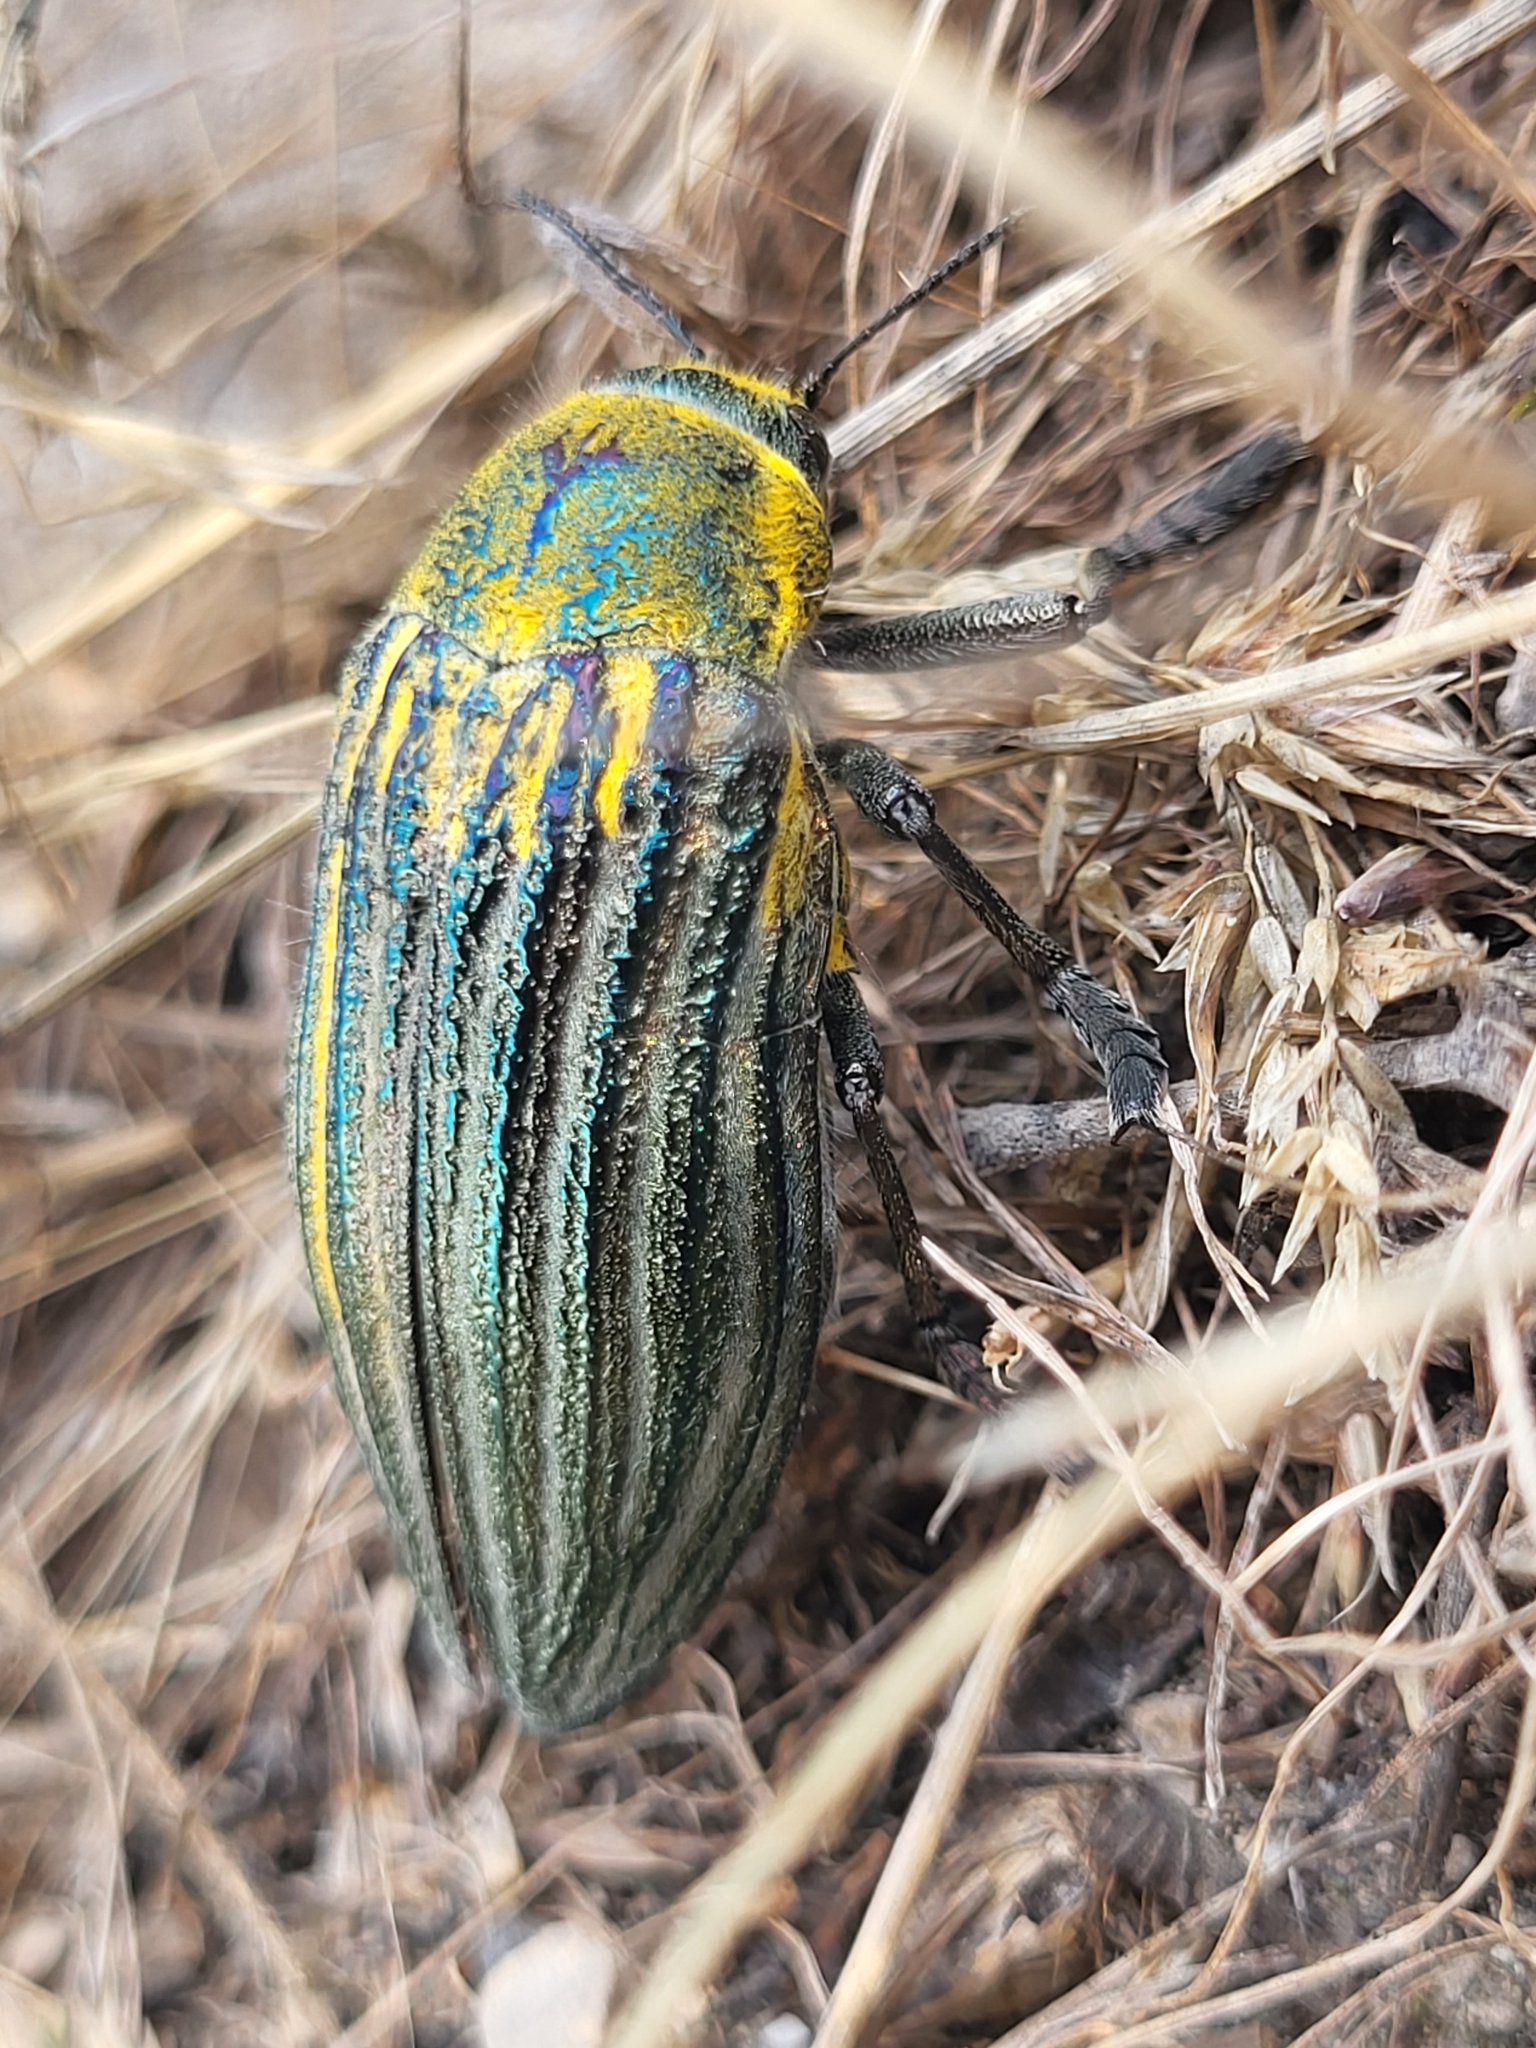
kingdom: Animalia
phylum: Arthropoda
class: Insecta
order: Coleoptera
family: Buprestidae
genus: Julodis
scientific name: Julodis andreae
